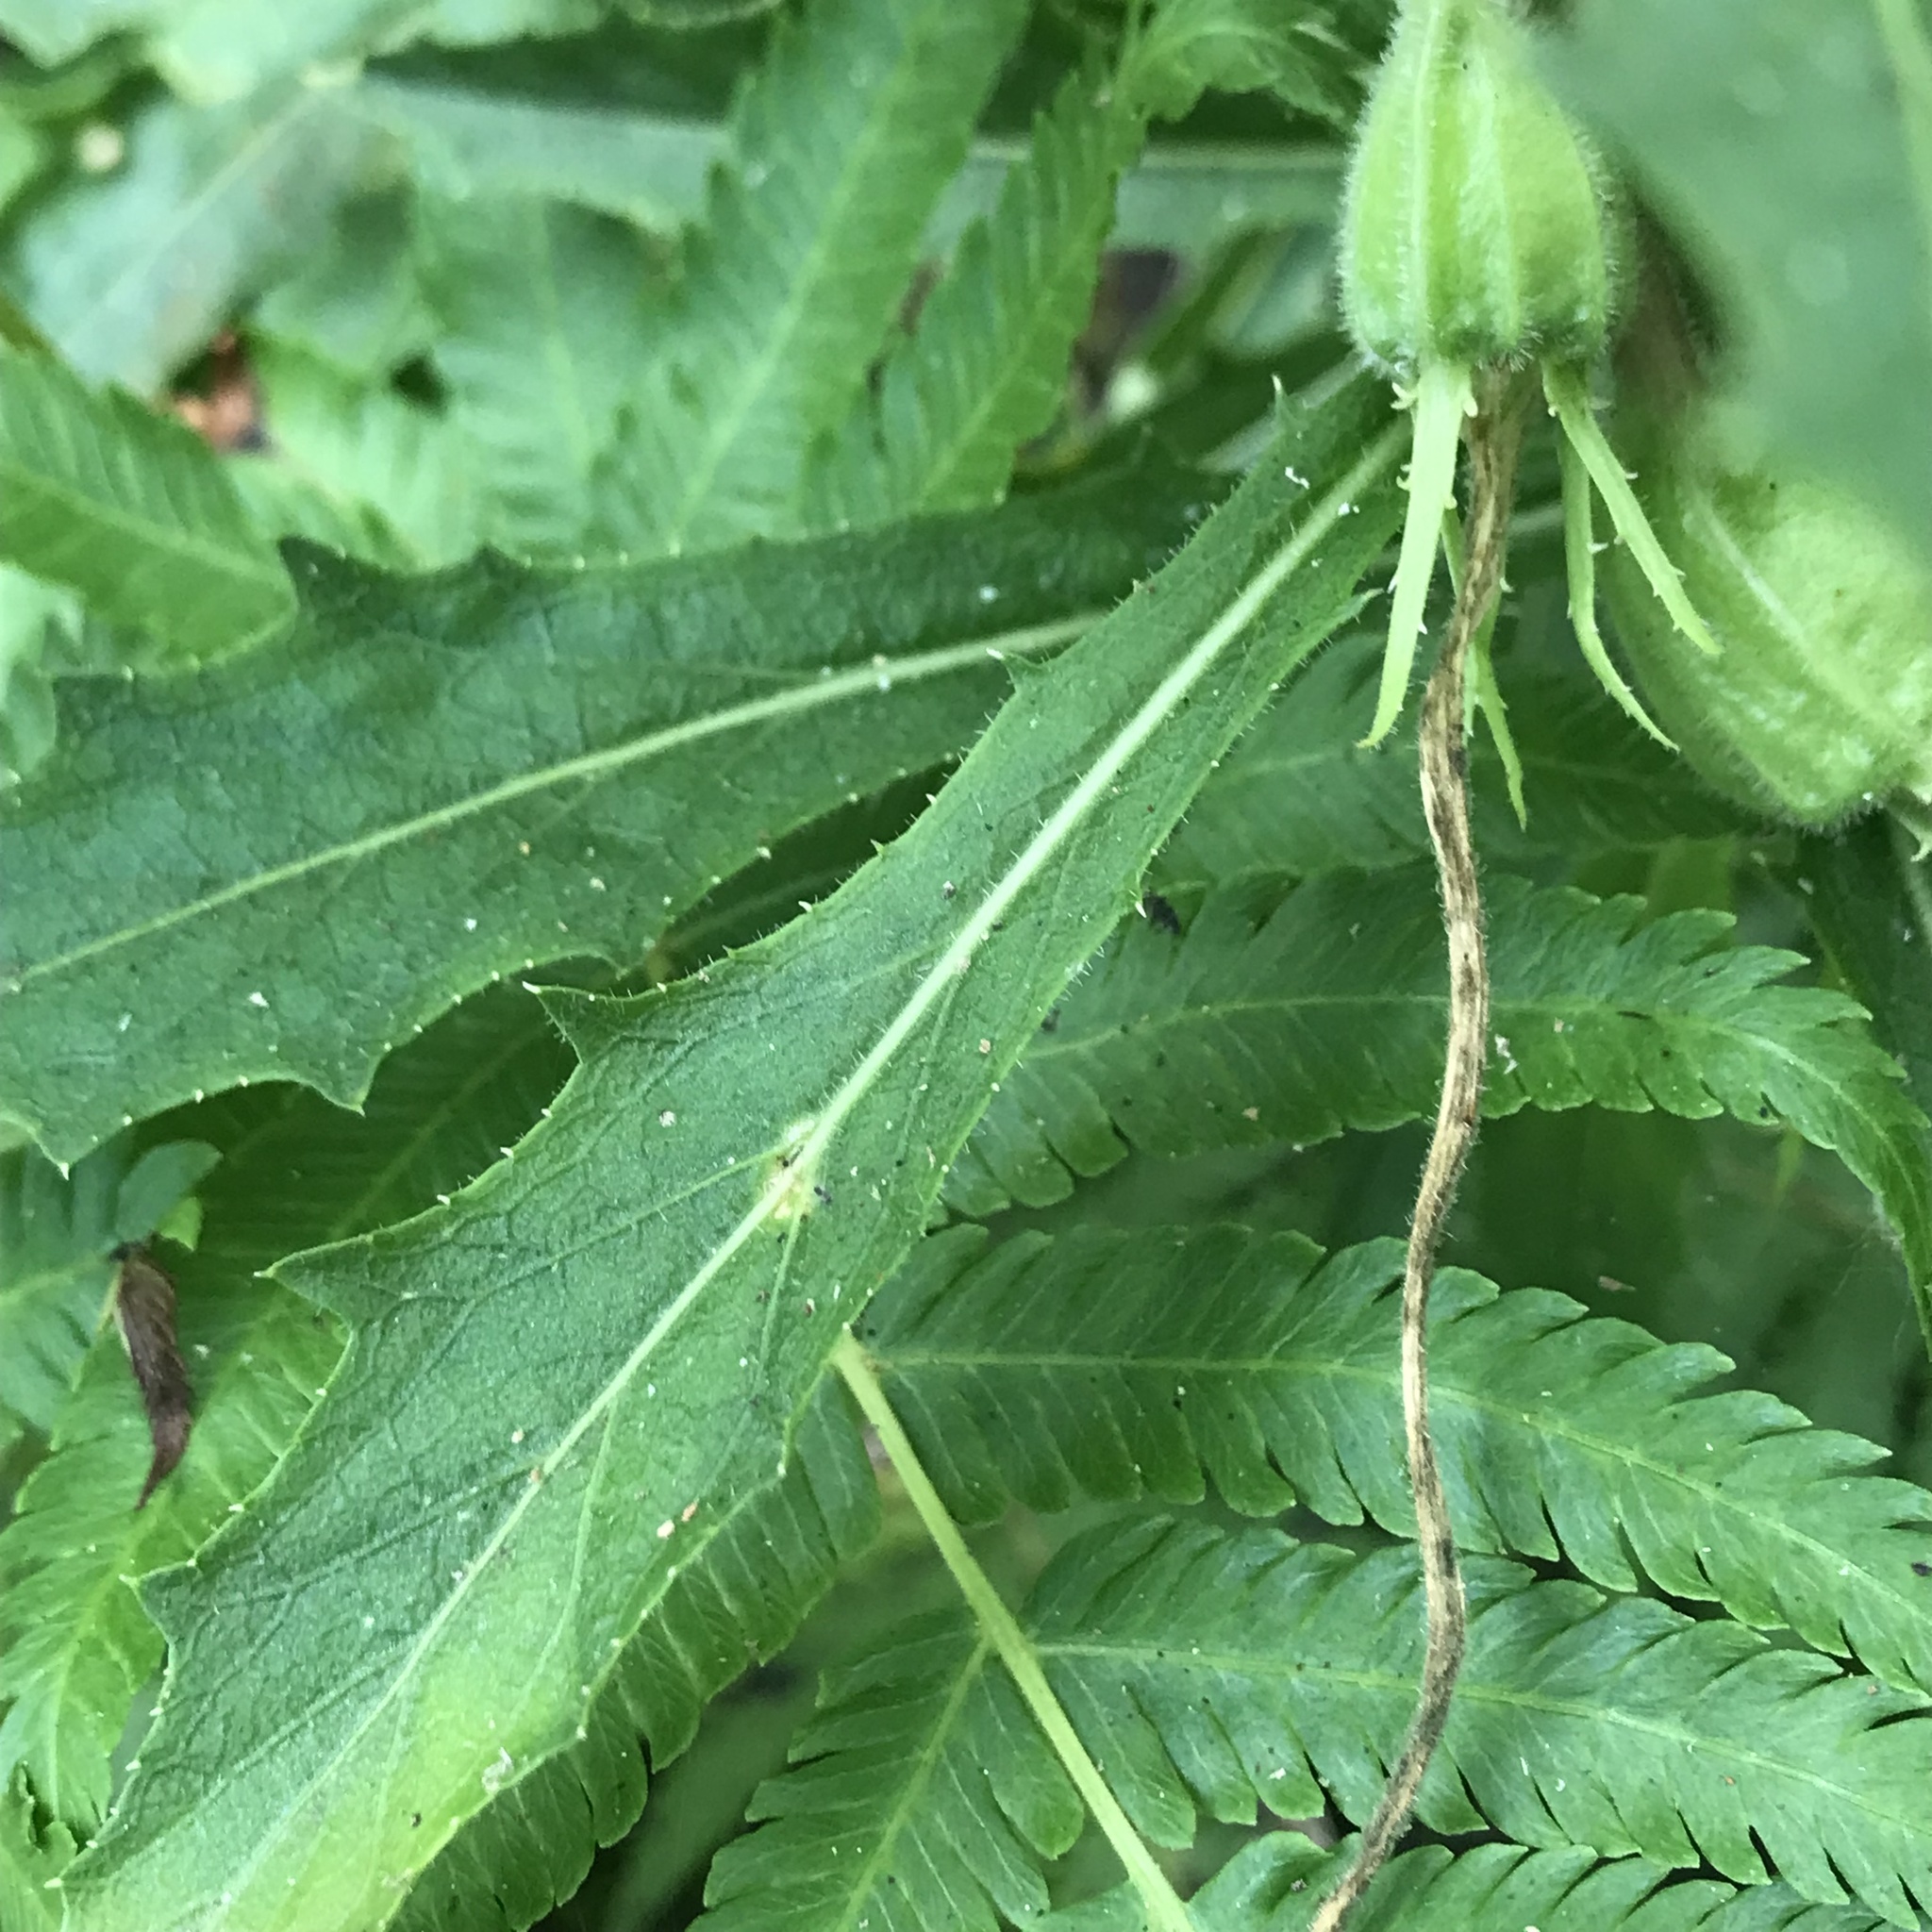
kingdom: Plantae
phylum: Tracheophyta
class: Magnoliopsida
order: Asterales
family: Campanulaceae
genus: Hippobroma
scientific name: Hippobroma longiflora
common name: Madamfate
